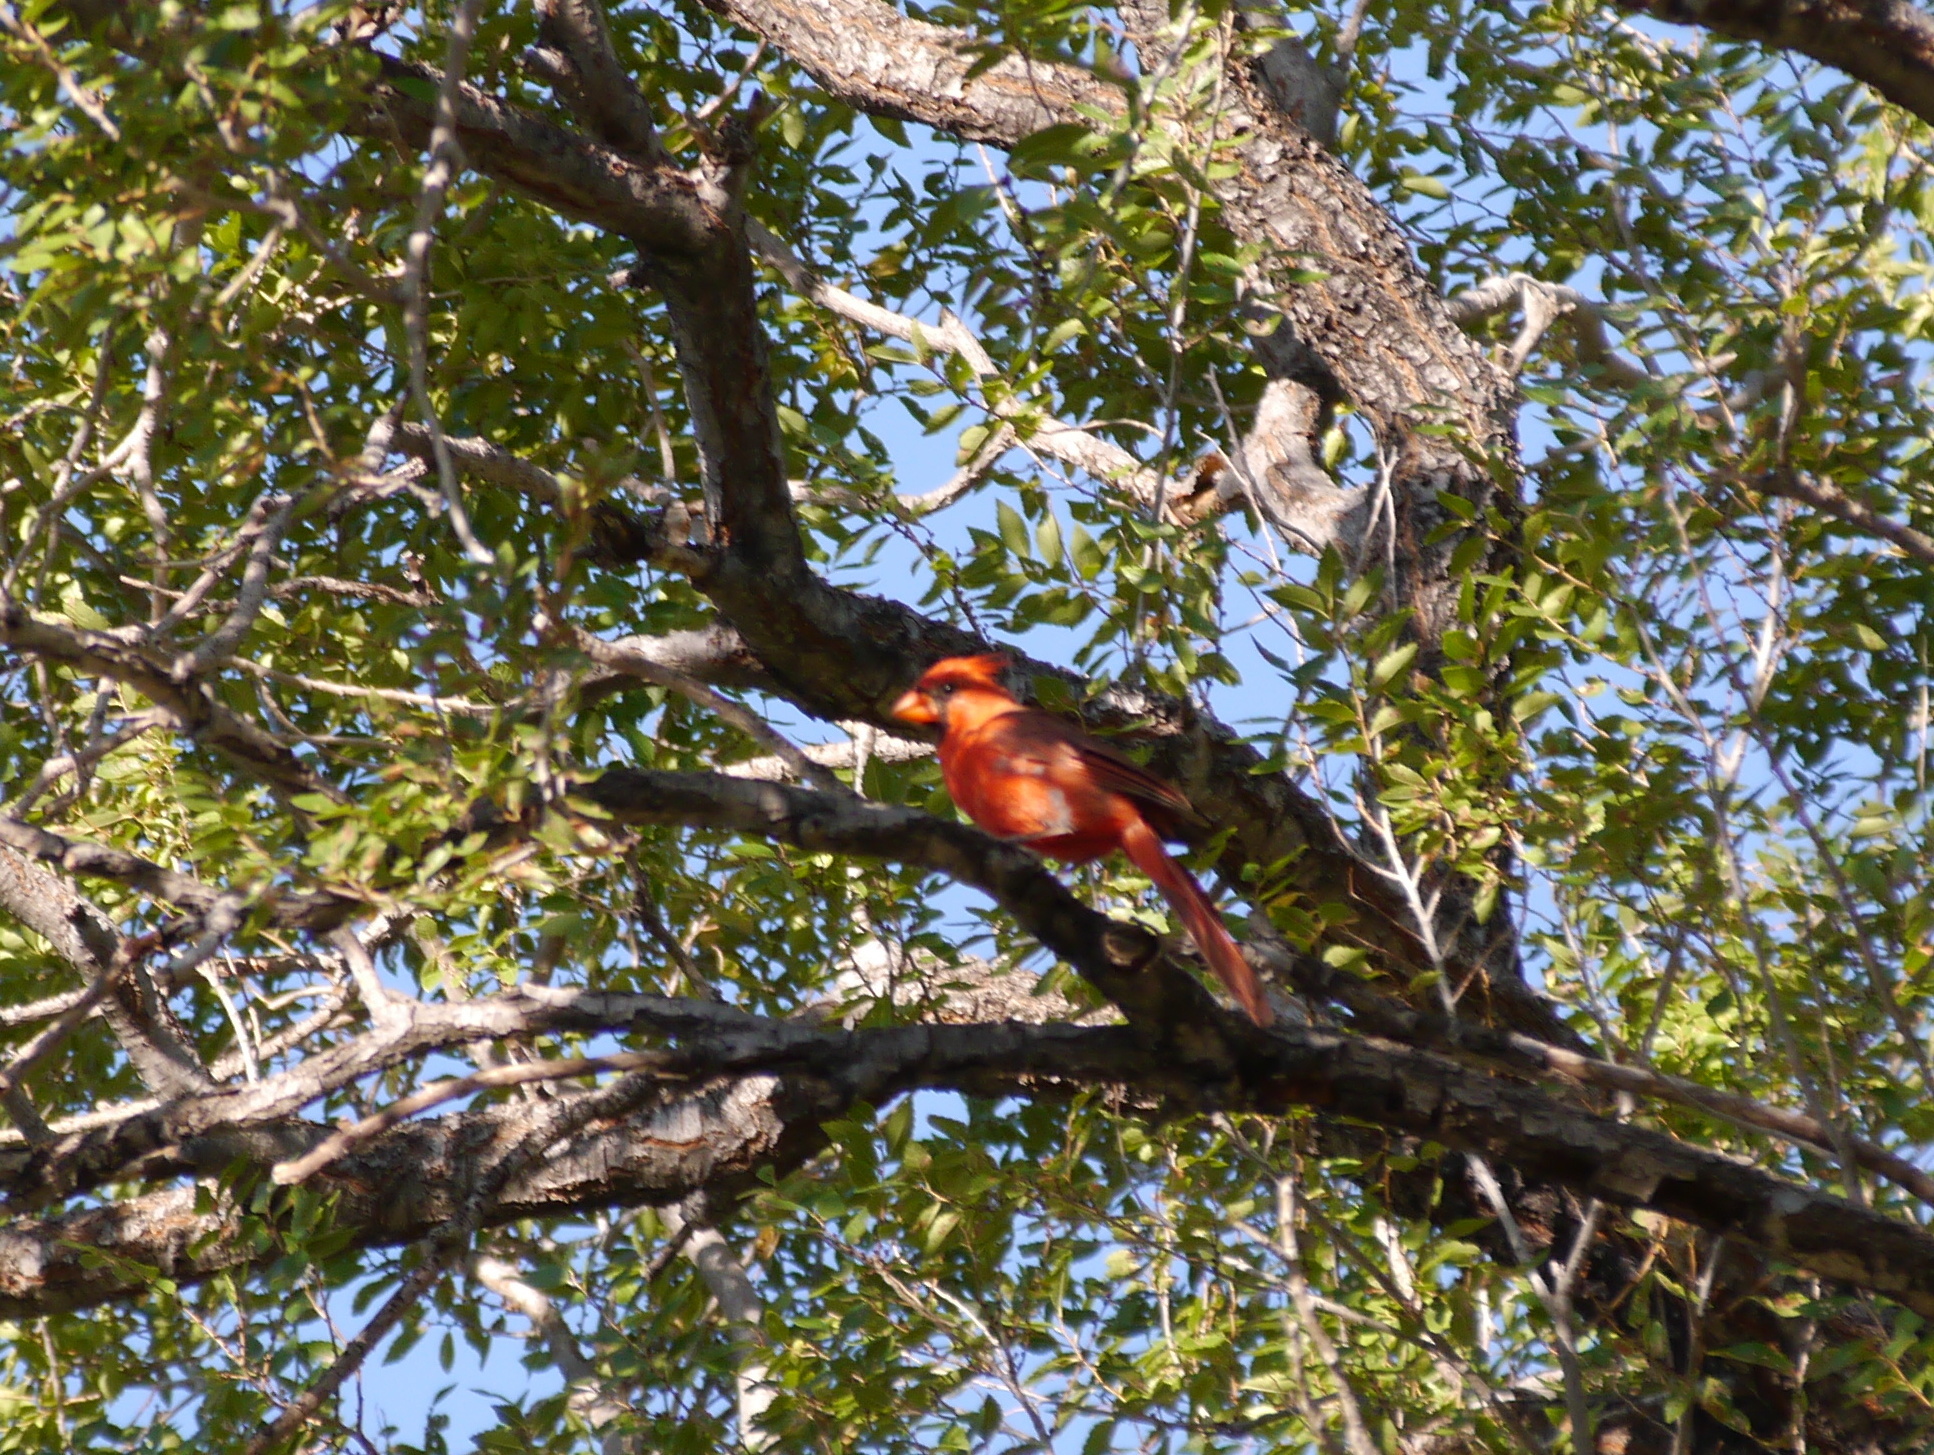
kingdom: Animalia
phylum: Chordata
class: Aves
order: Passeriformes
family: Cardinalidae
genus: Cardinalis
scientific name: Cardinalis cardinalis
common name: Northern cardinal
